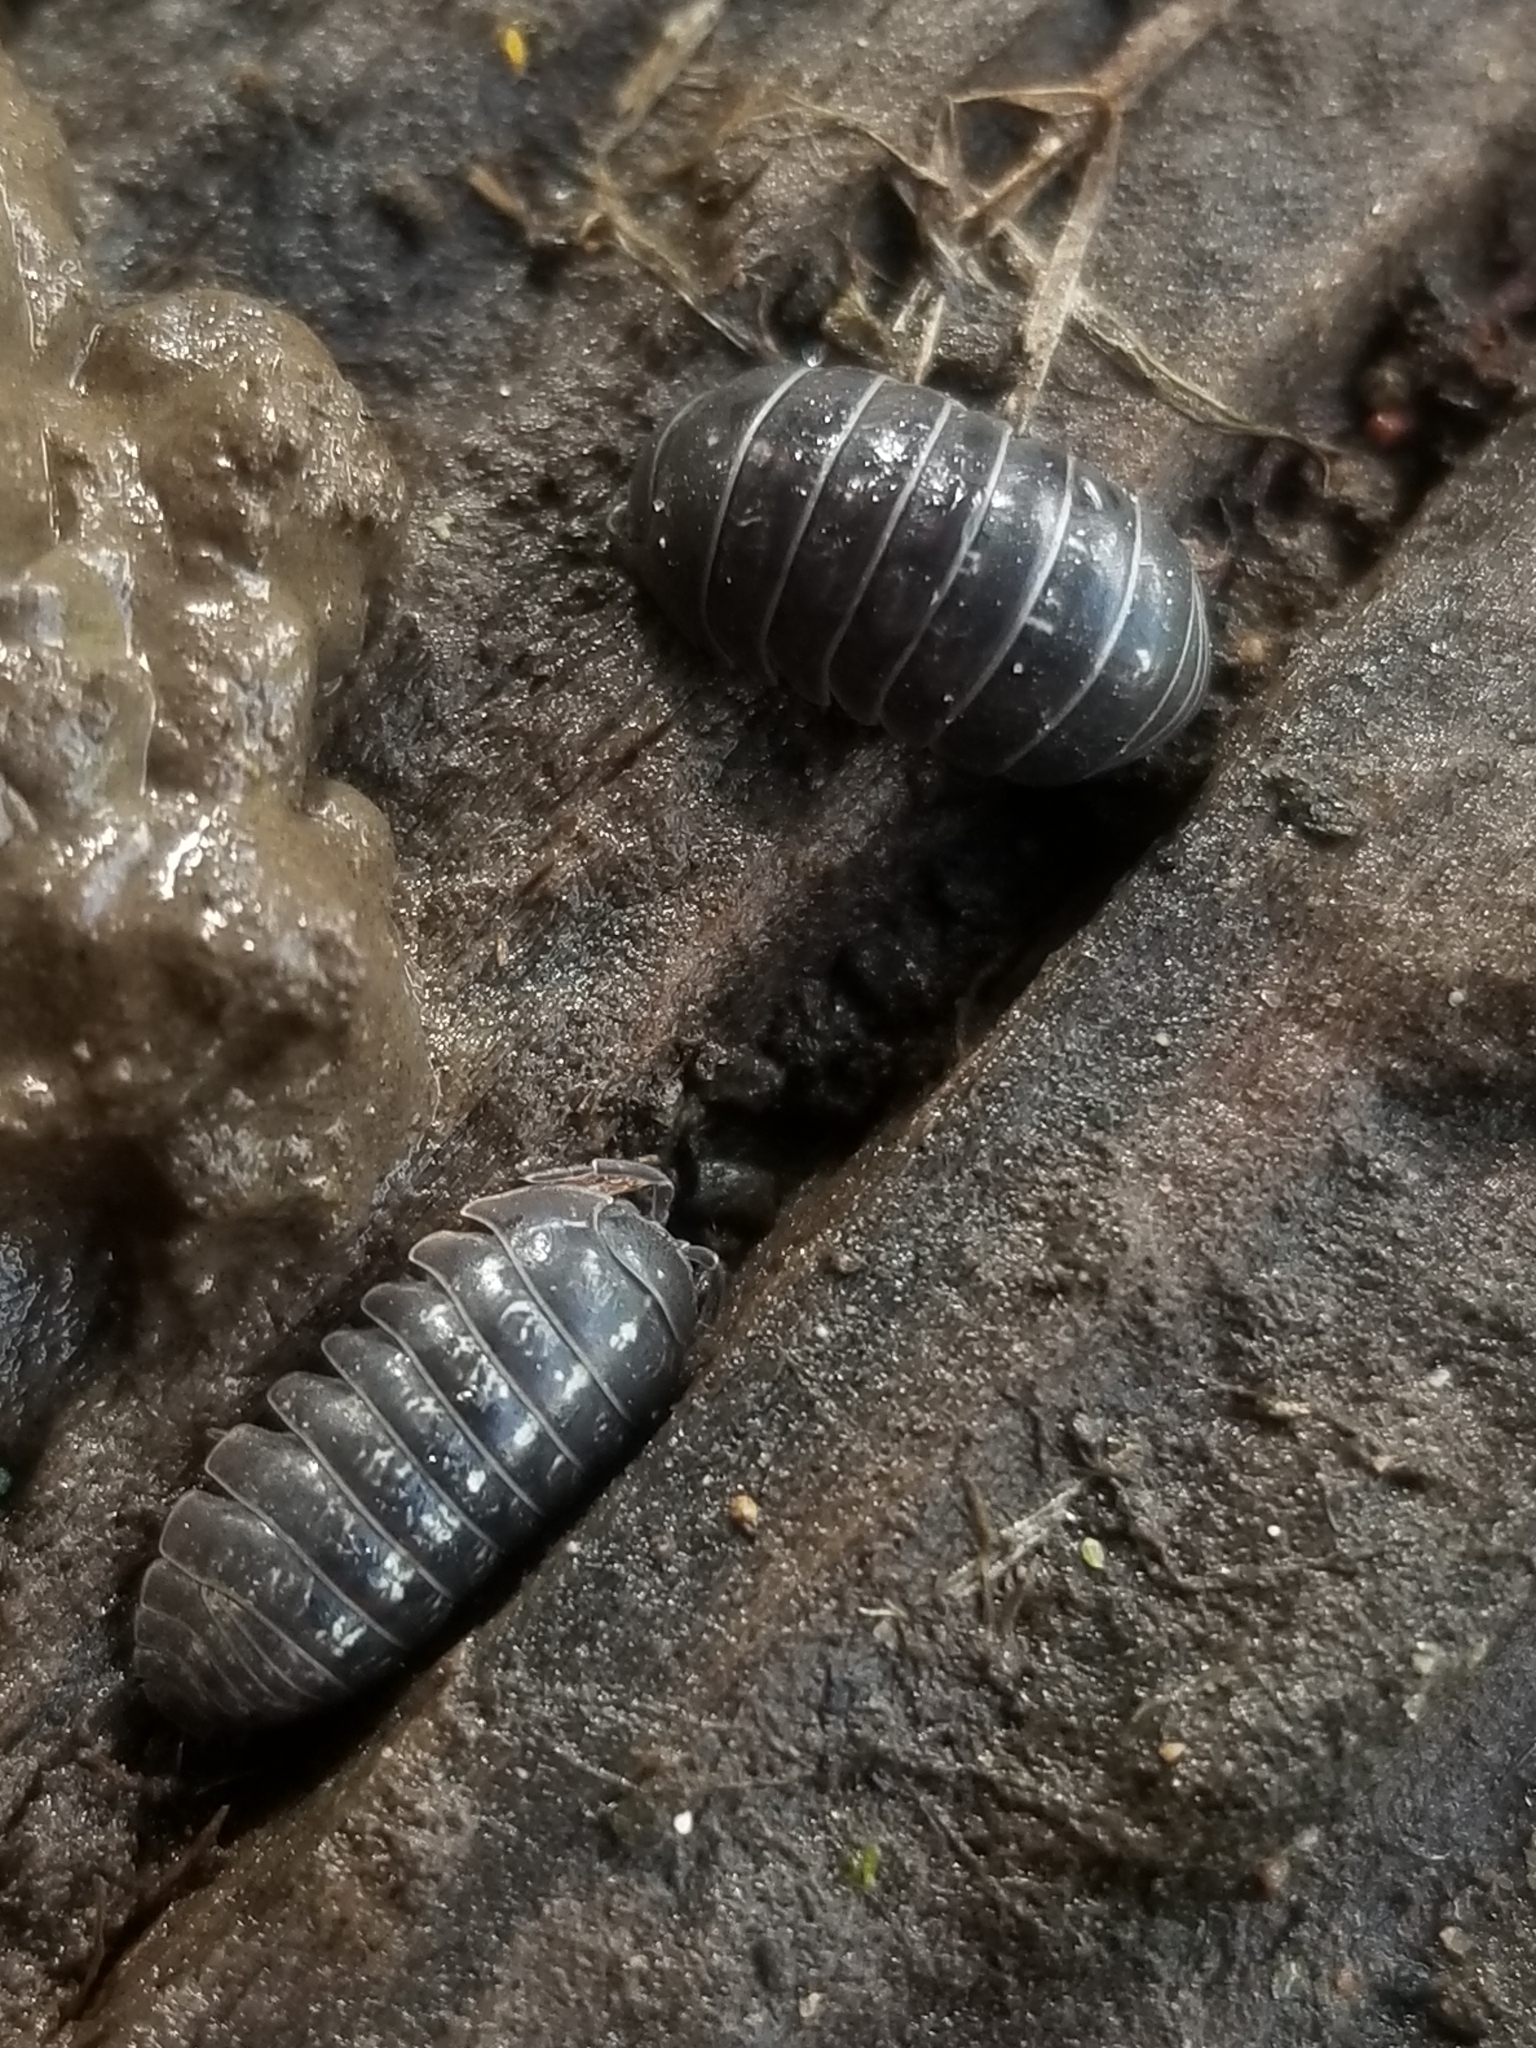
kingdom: Animalia
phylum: Arthropoda
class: Malacostraca
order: Isopoda
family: Armadillidiidae
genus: Armadillidium
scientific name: Armadillidium vulgare
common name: Common pill woodlouse
